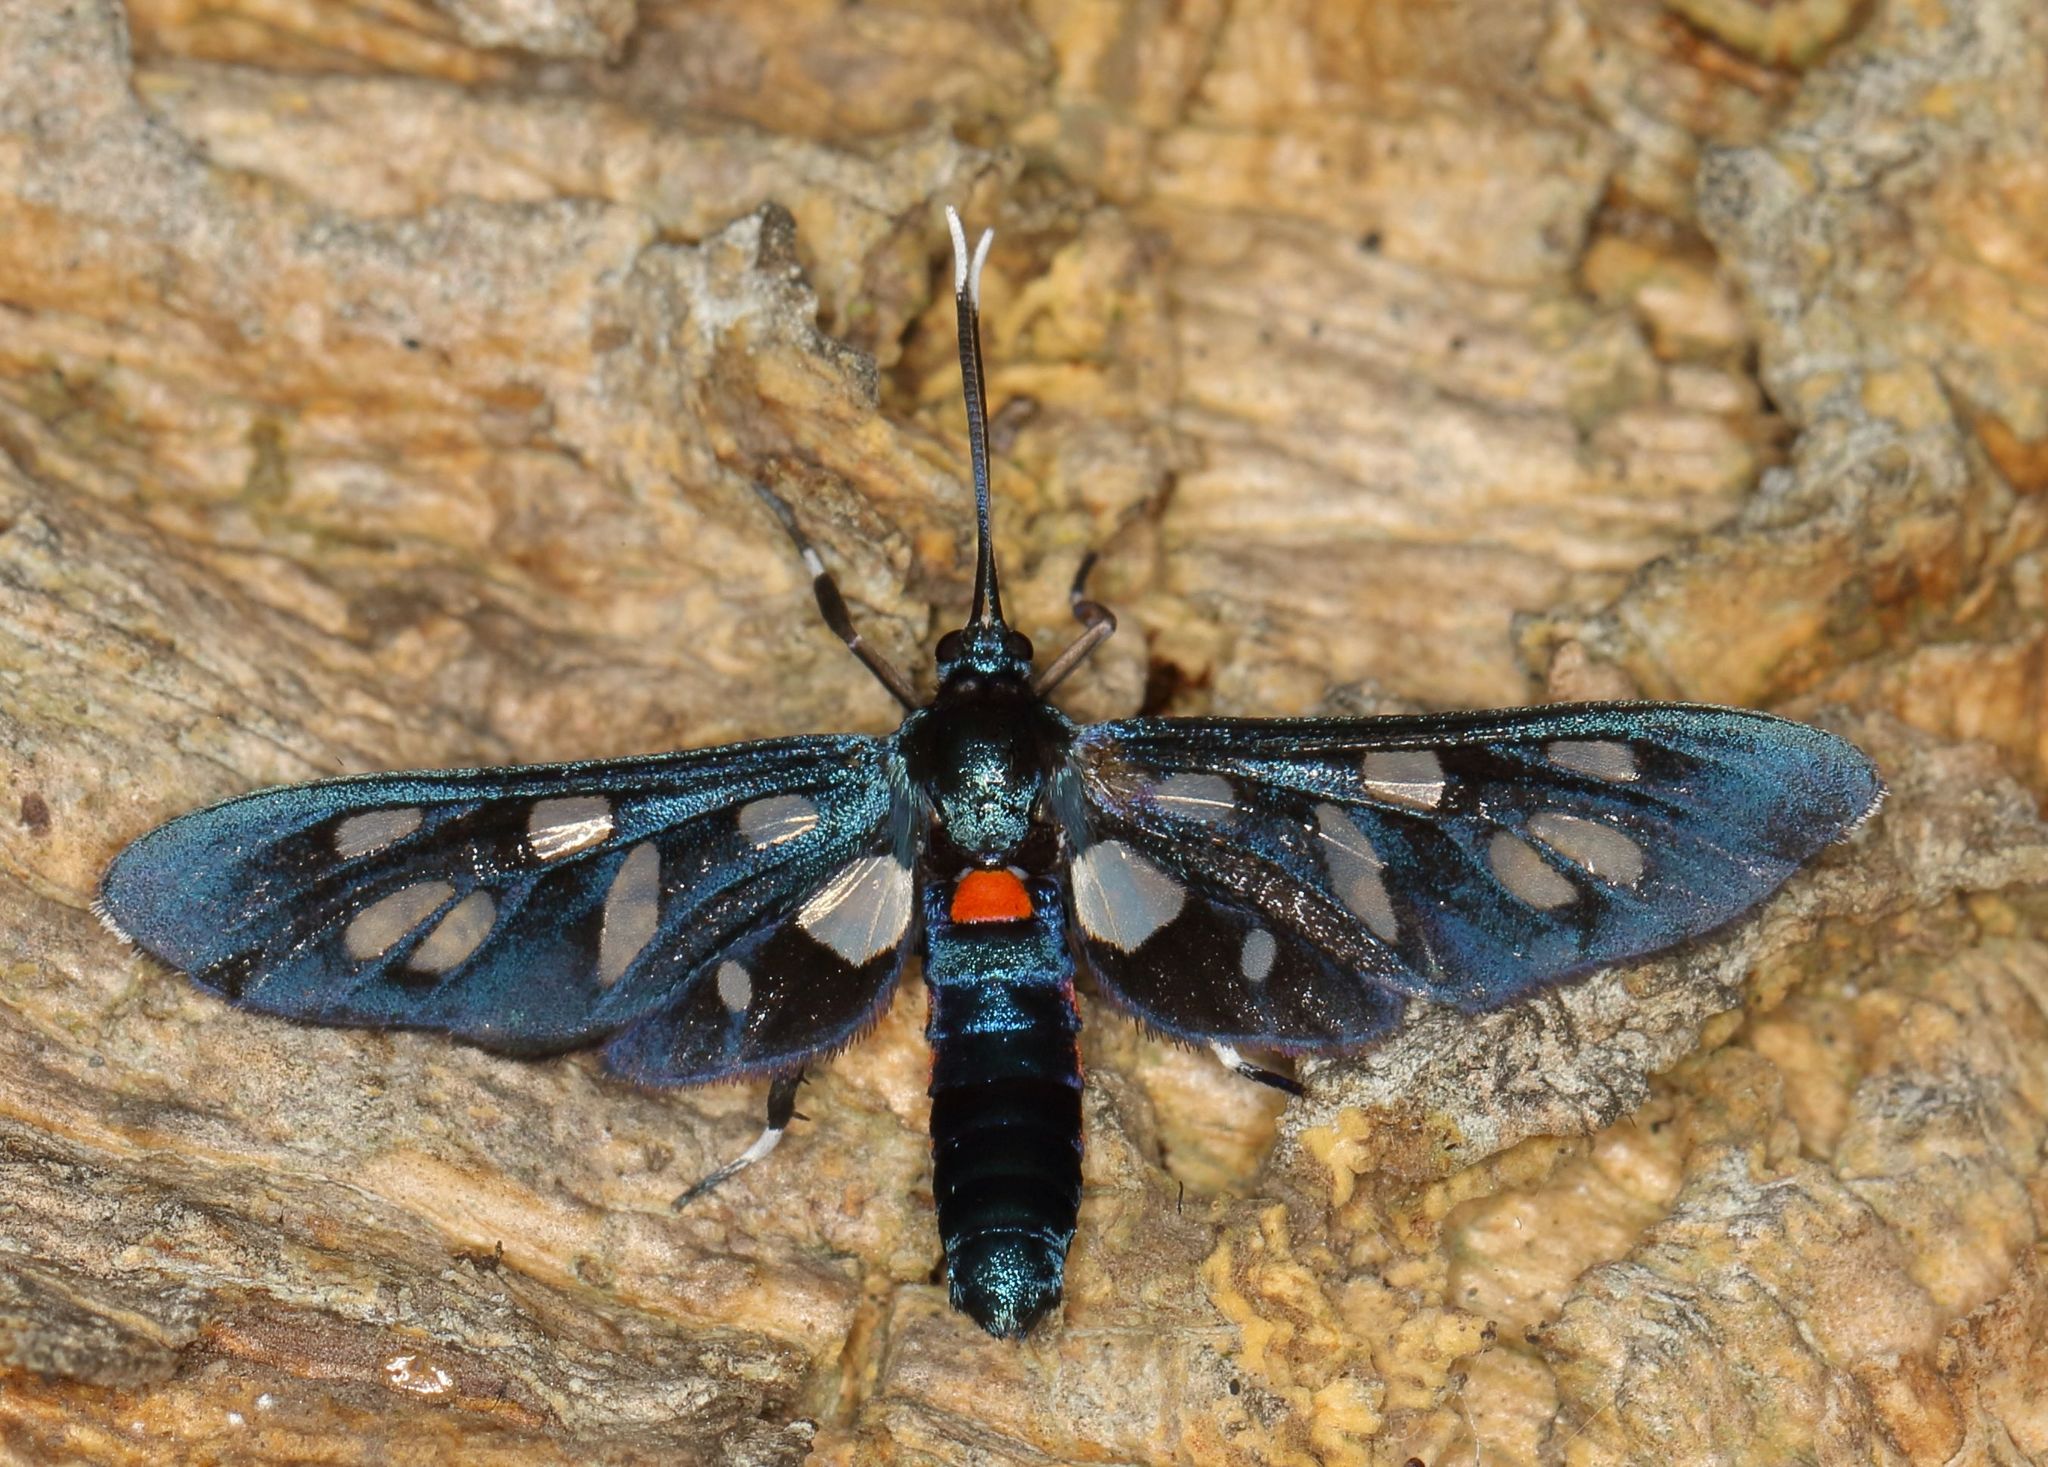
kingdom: Animalia
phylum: Arthropoda
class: Insecta
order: Lepidoptera
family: Erebidae
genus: Amata
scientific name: Amata kuhlweini
